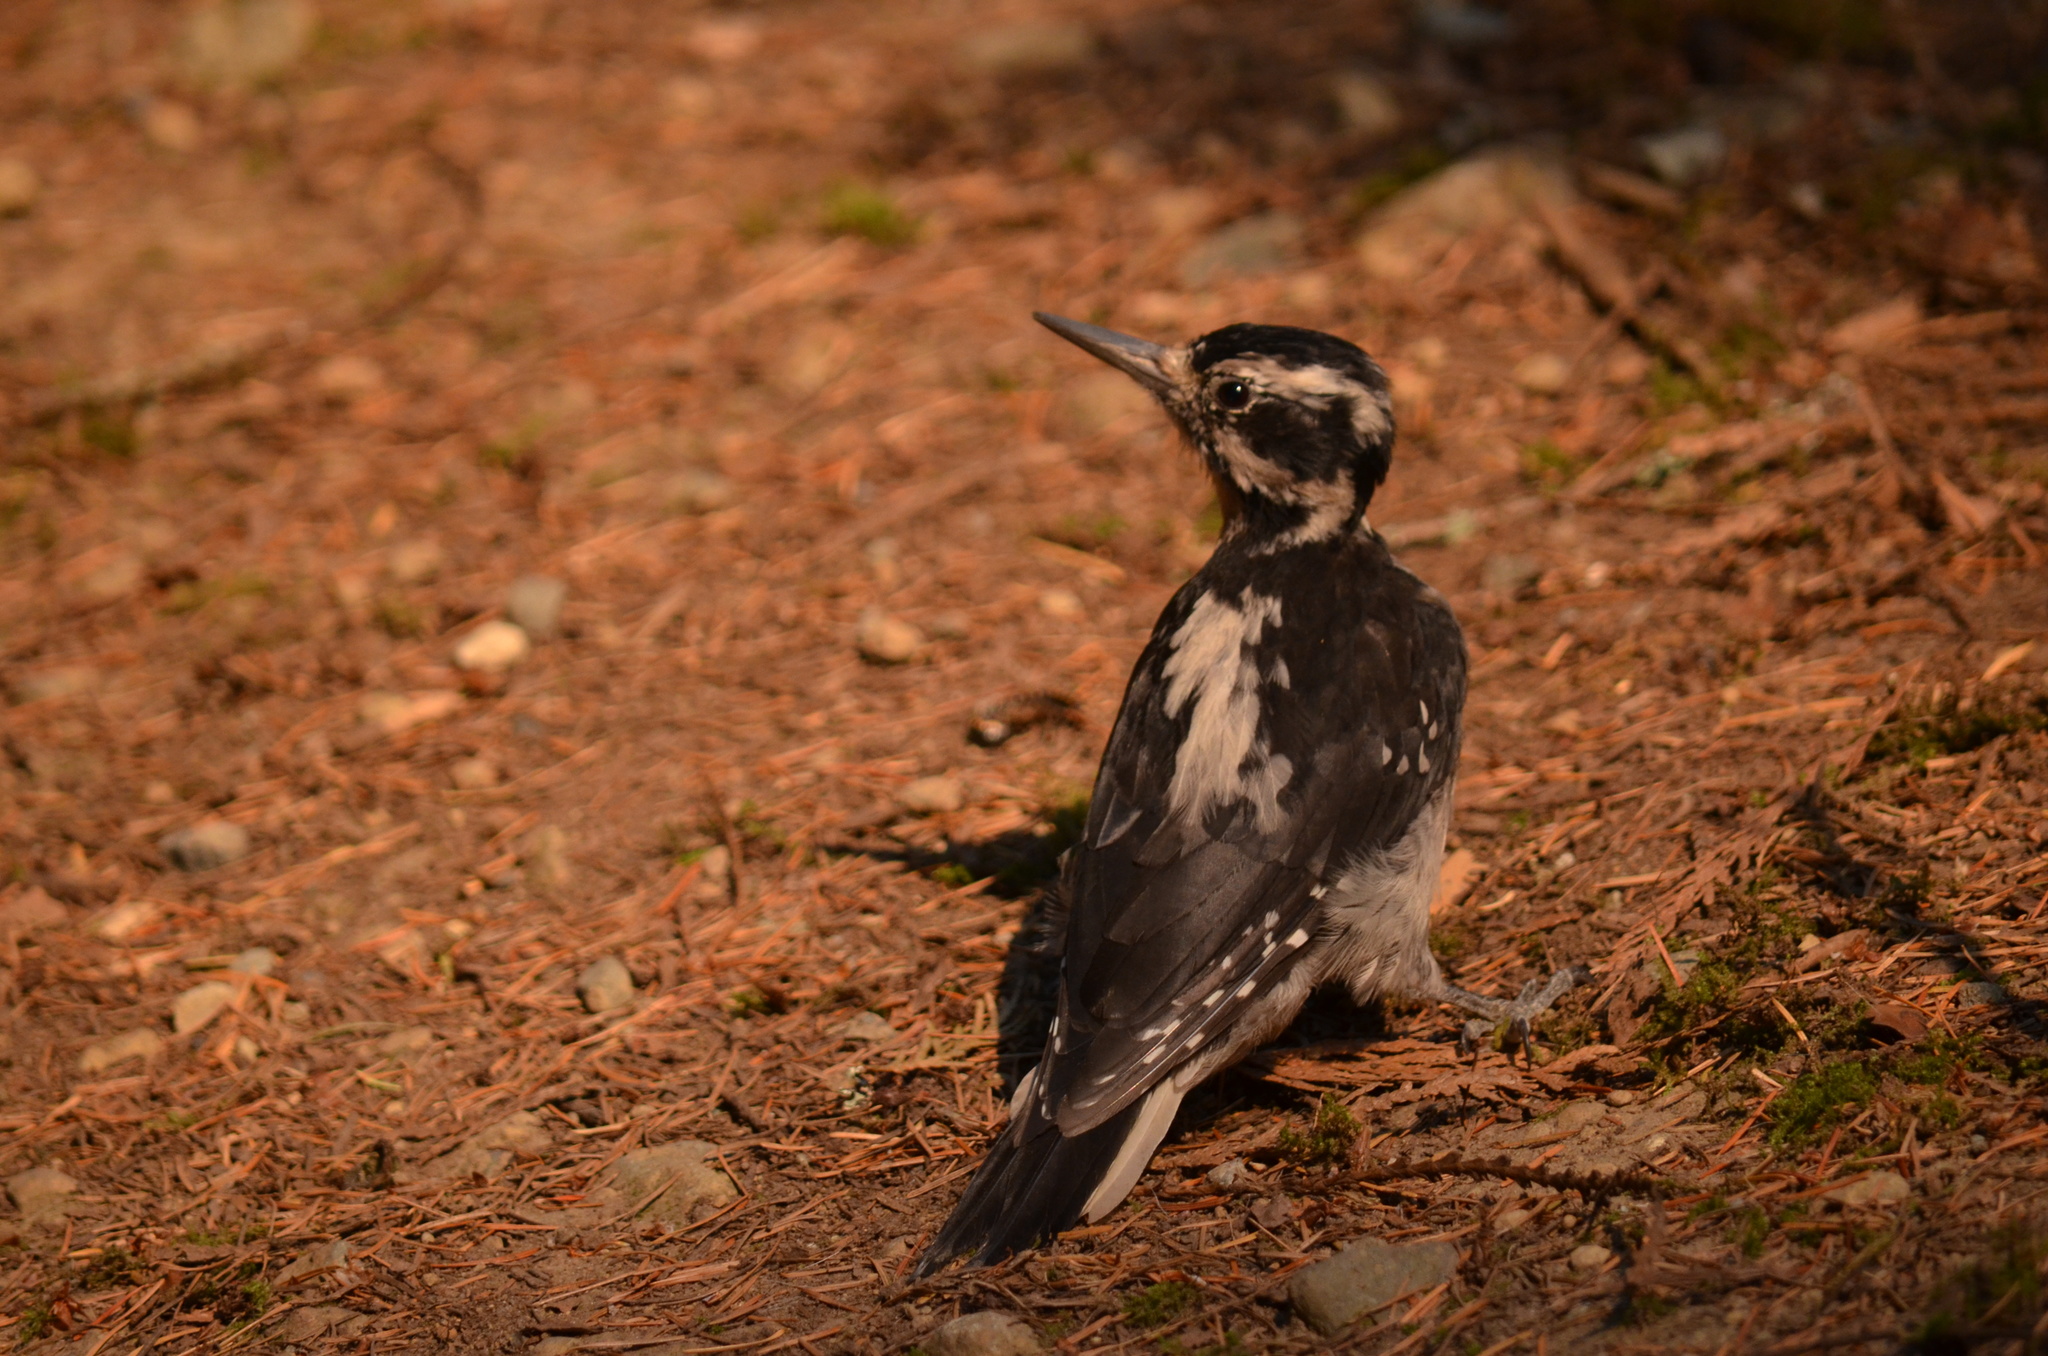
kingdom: Animalia
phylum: Chordata
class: Aves
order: Piciformes
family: Picidae
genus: Leuconotopicus
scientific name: Leuconotopicus villosus
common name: Hairy woodpecker
